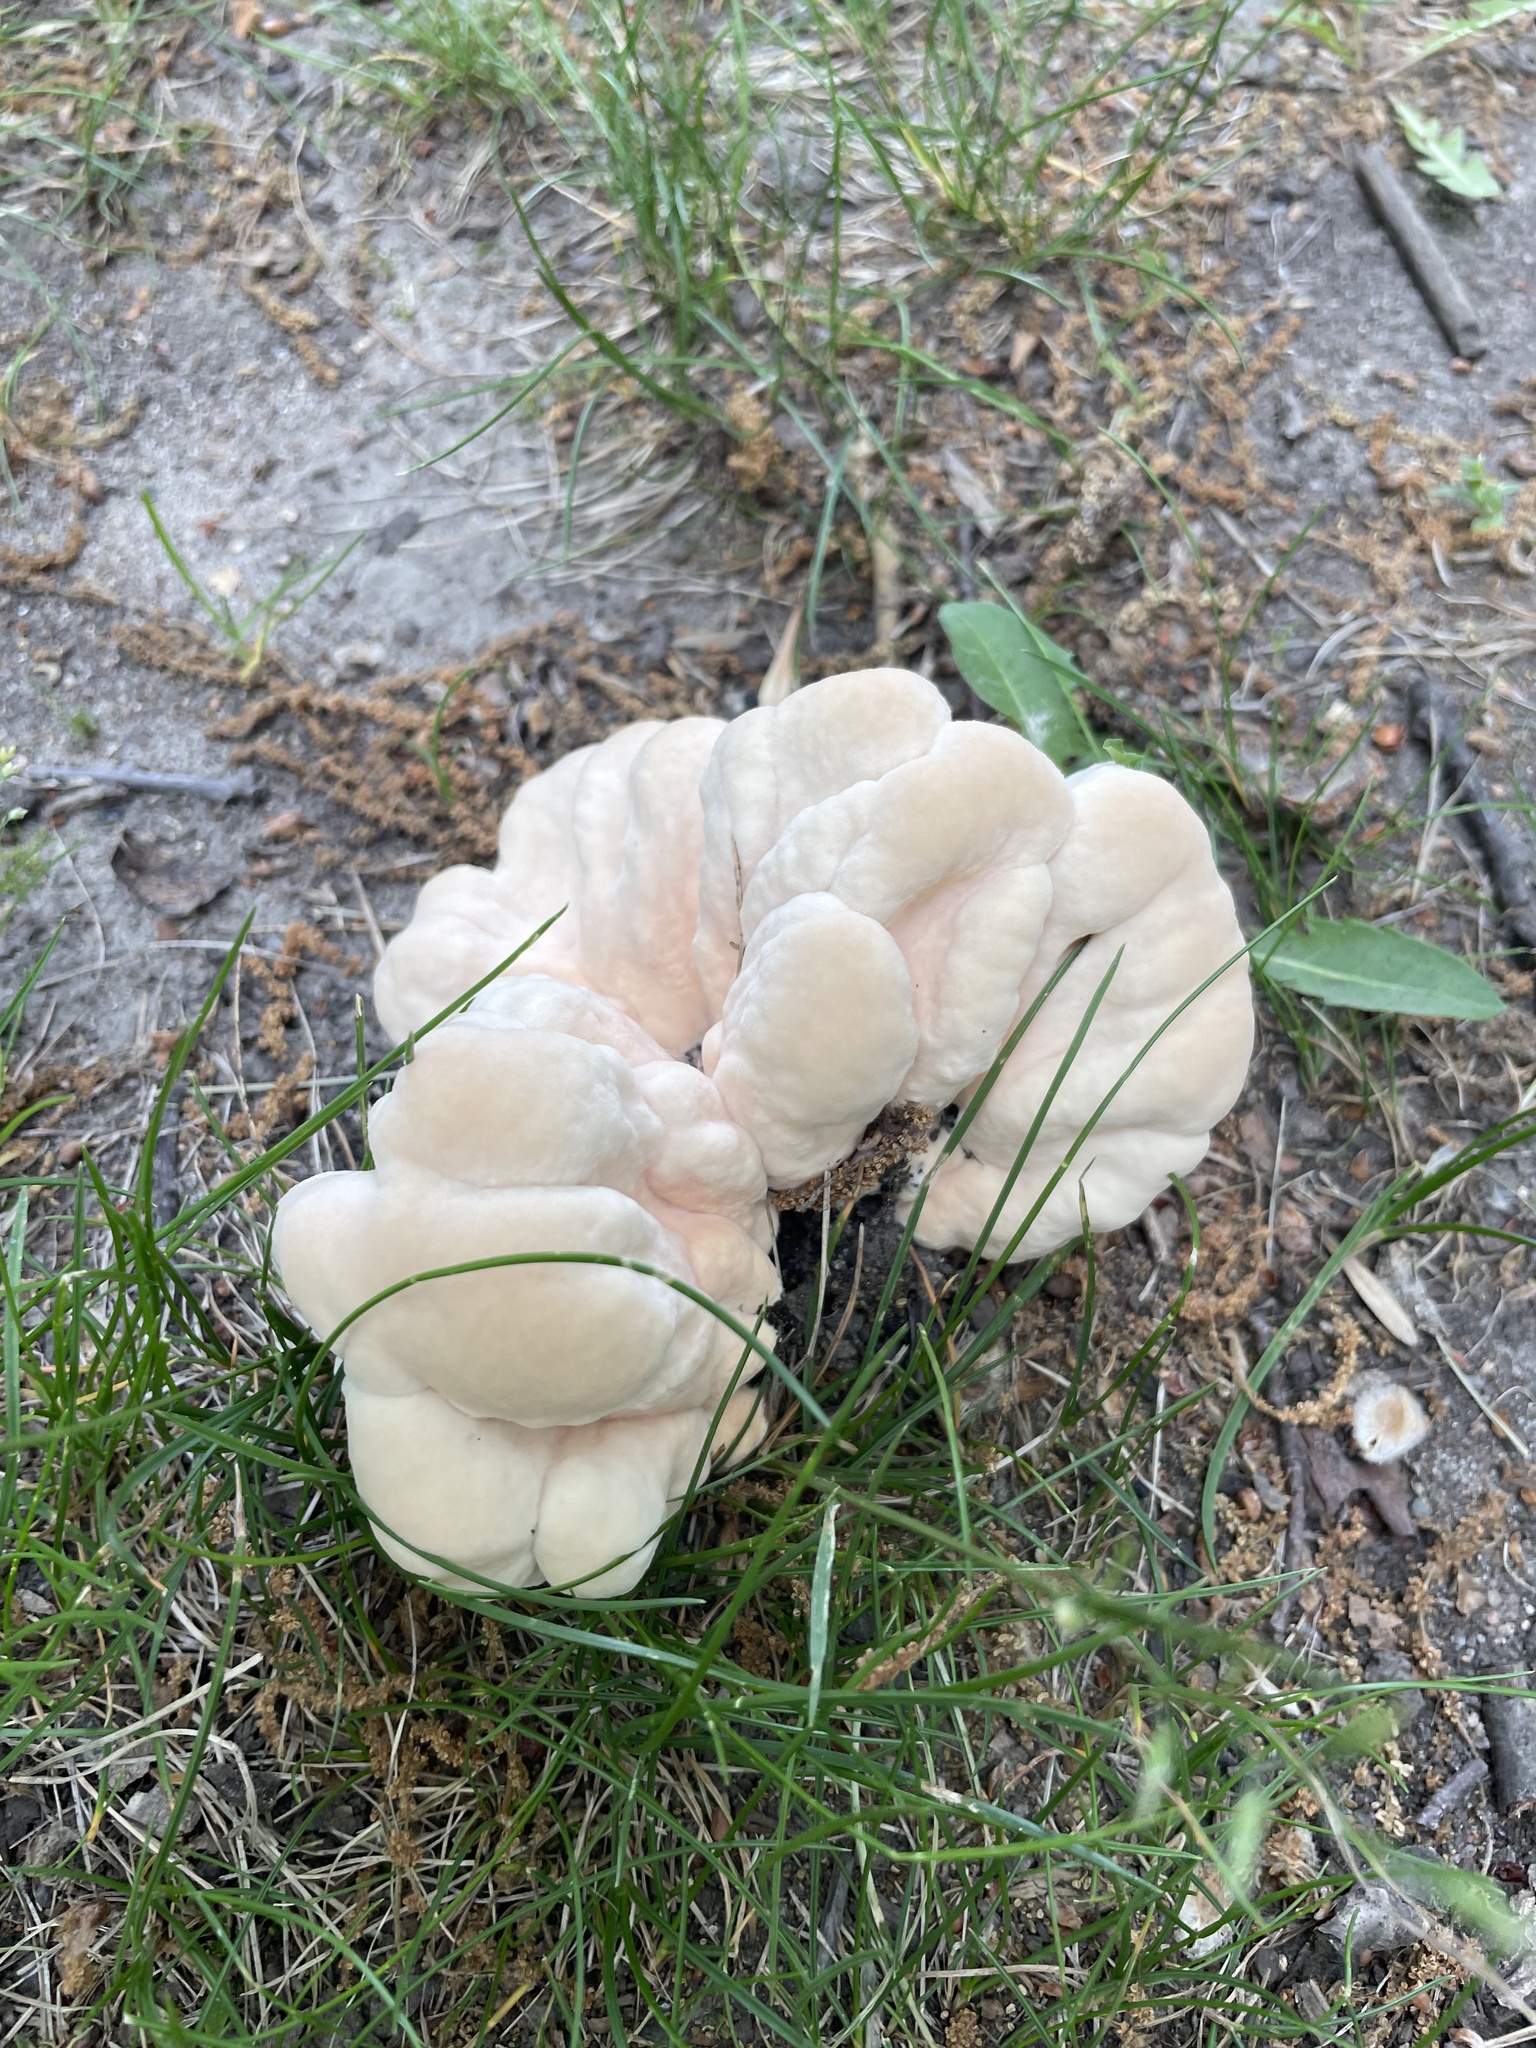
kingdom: Fungi
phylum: Basidiomycota
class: Agaricomycetes
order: Polyporales
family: Laetiporaceae
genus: Laetiporus
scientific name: Laetiporus sulphureus
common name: Chicken of the woods
